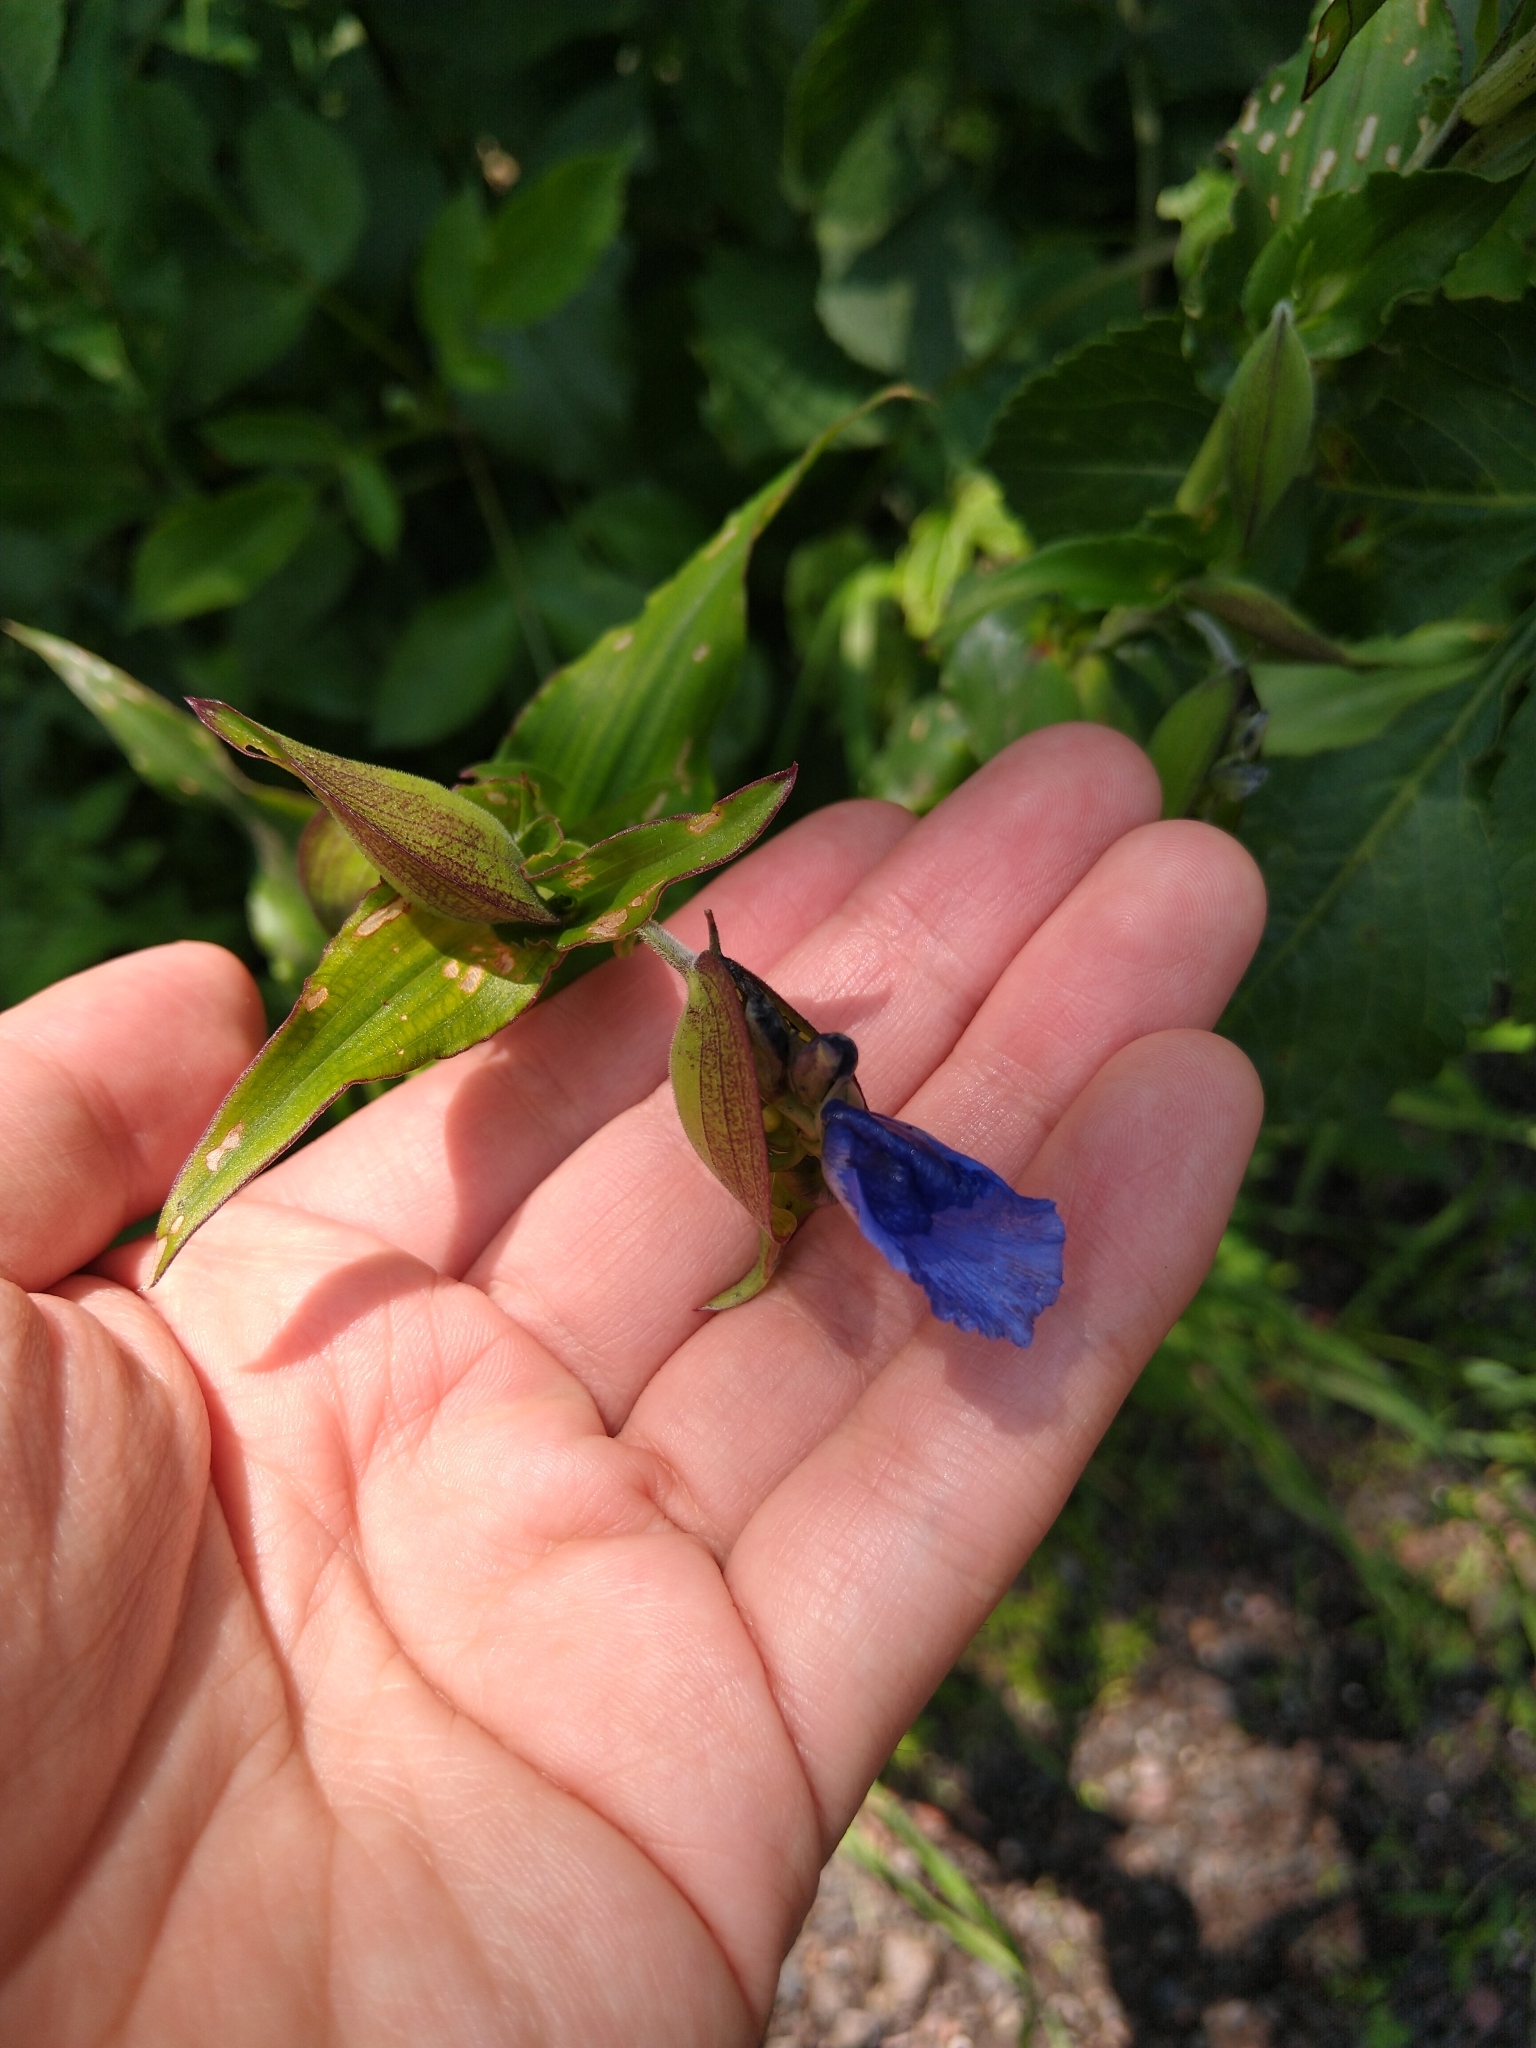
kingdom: Plantae
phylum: Tracheophyta
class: Liliopsida
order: Commelinales
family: Commelinaceae
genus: Commelina
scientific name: Commelina tuberosa
